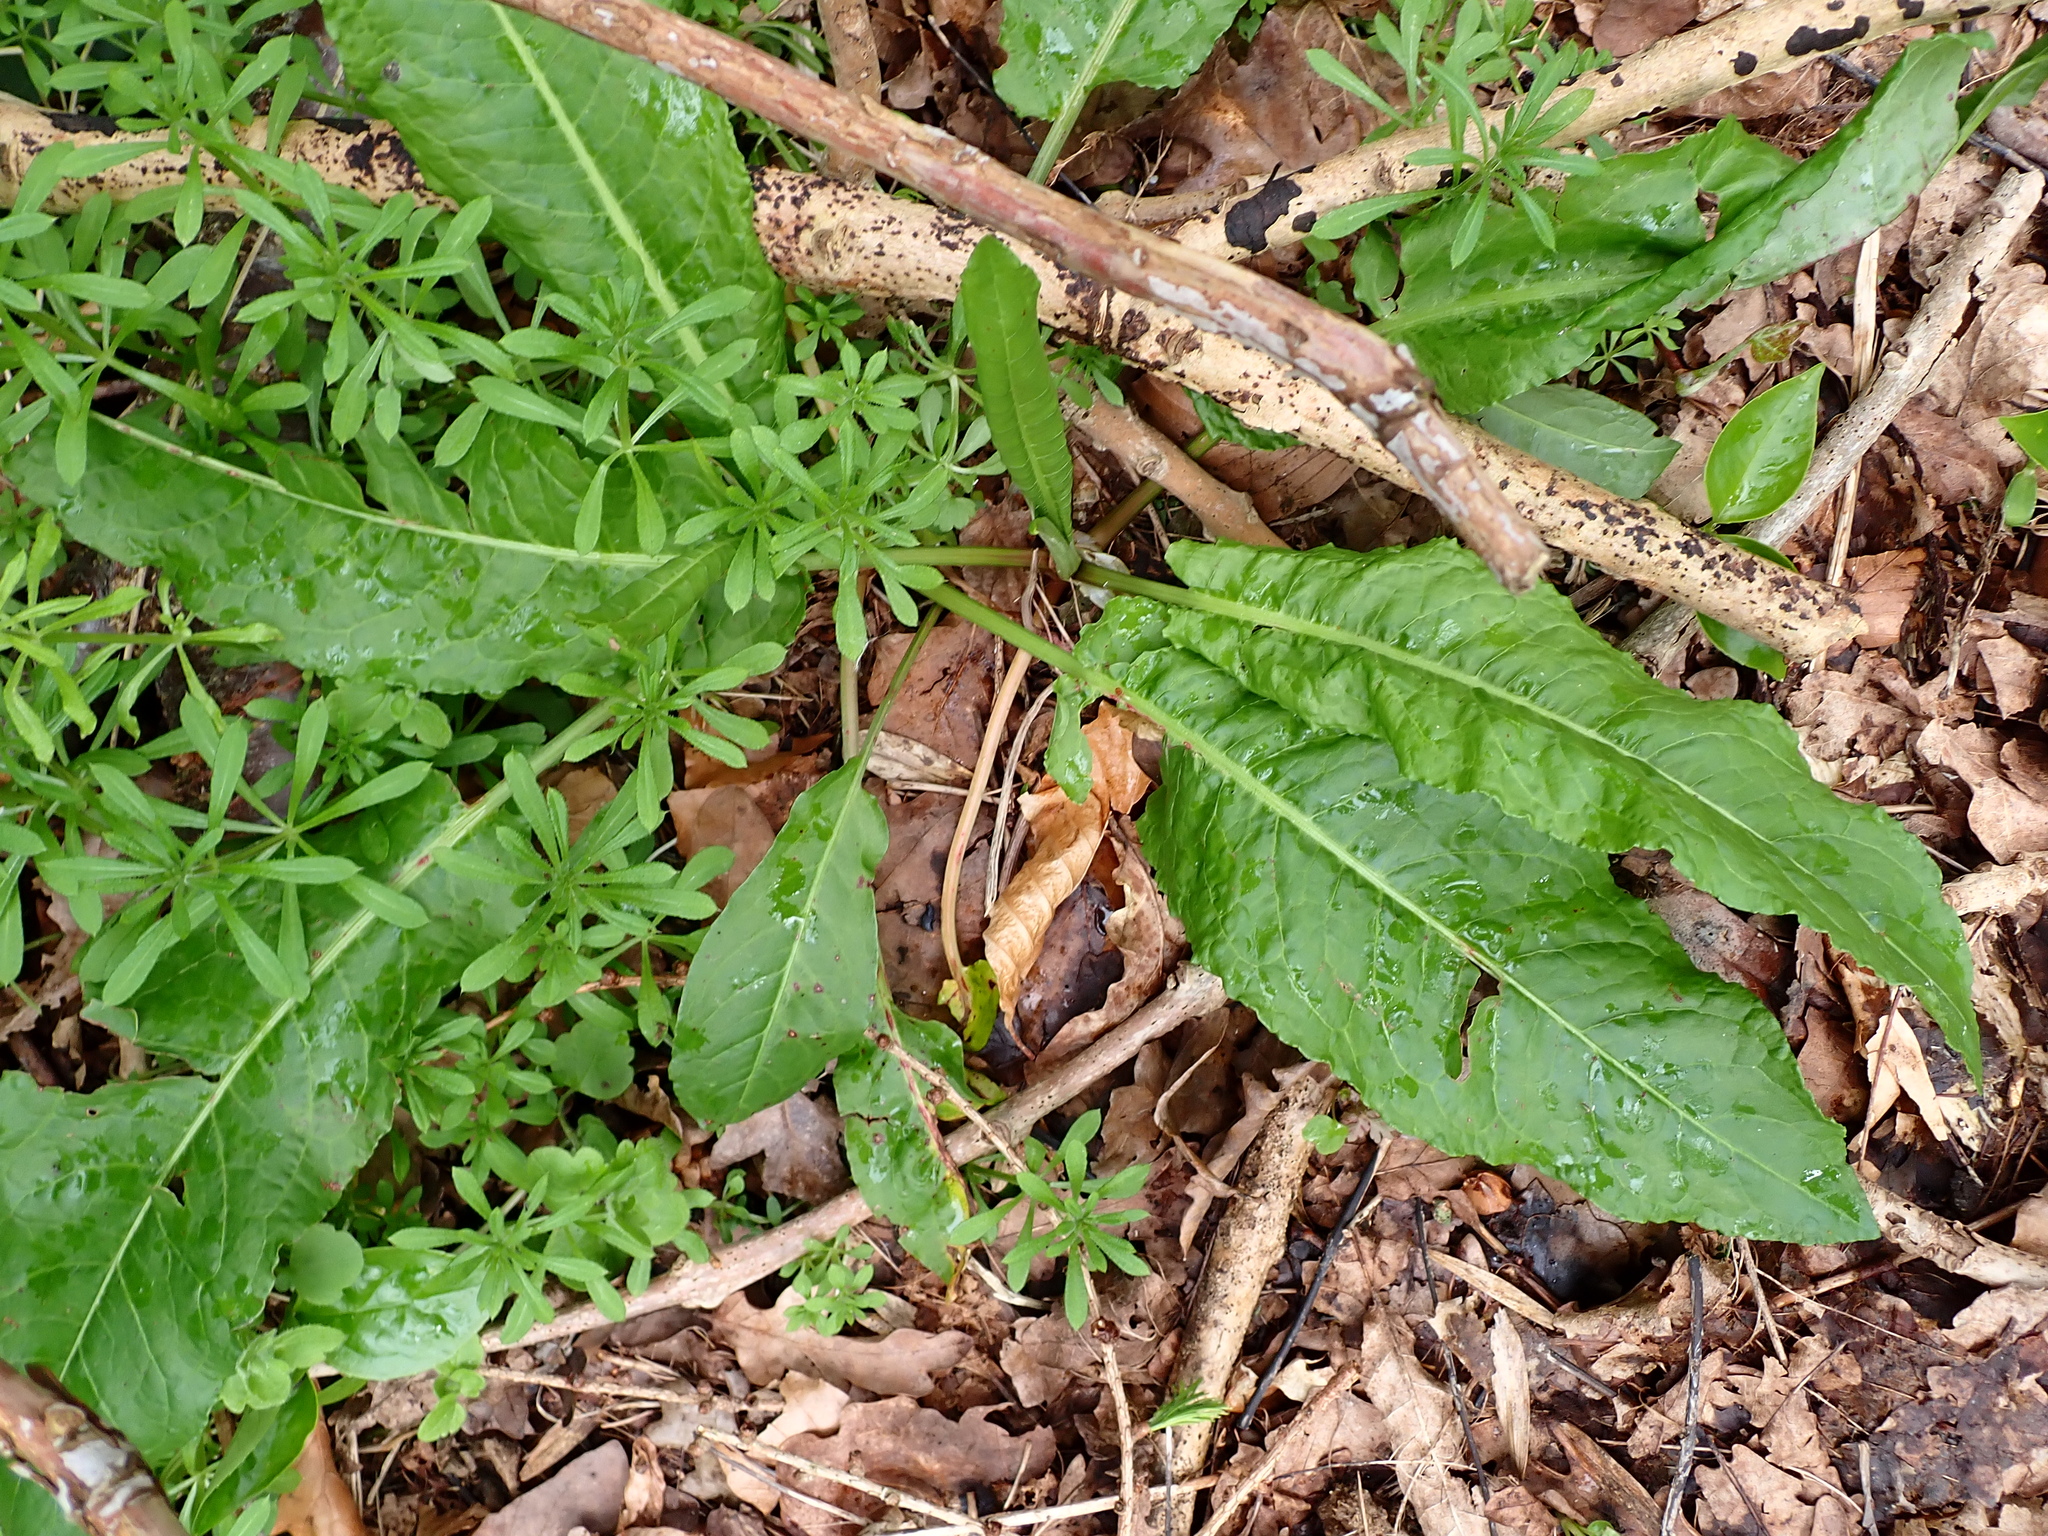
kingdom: Plantae
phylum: Tracheophyta
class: Magnoliopsida
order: Caryophyllales
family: Polygonaceae
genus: Rumex
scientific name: Rumex sanguineus
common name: Wood dock
